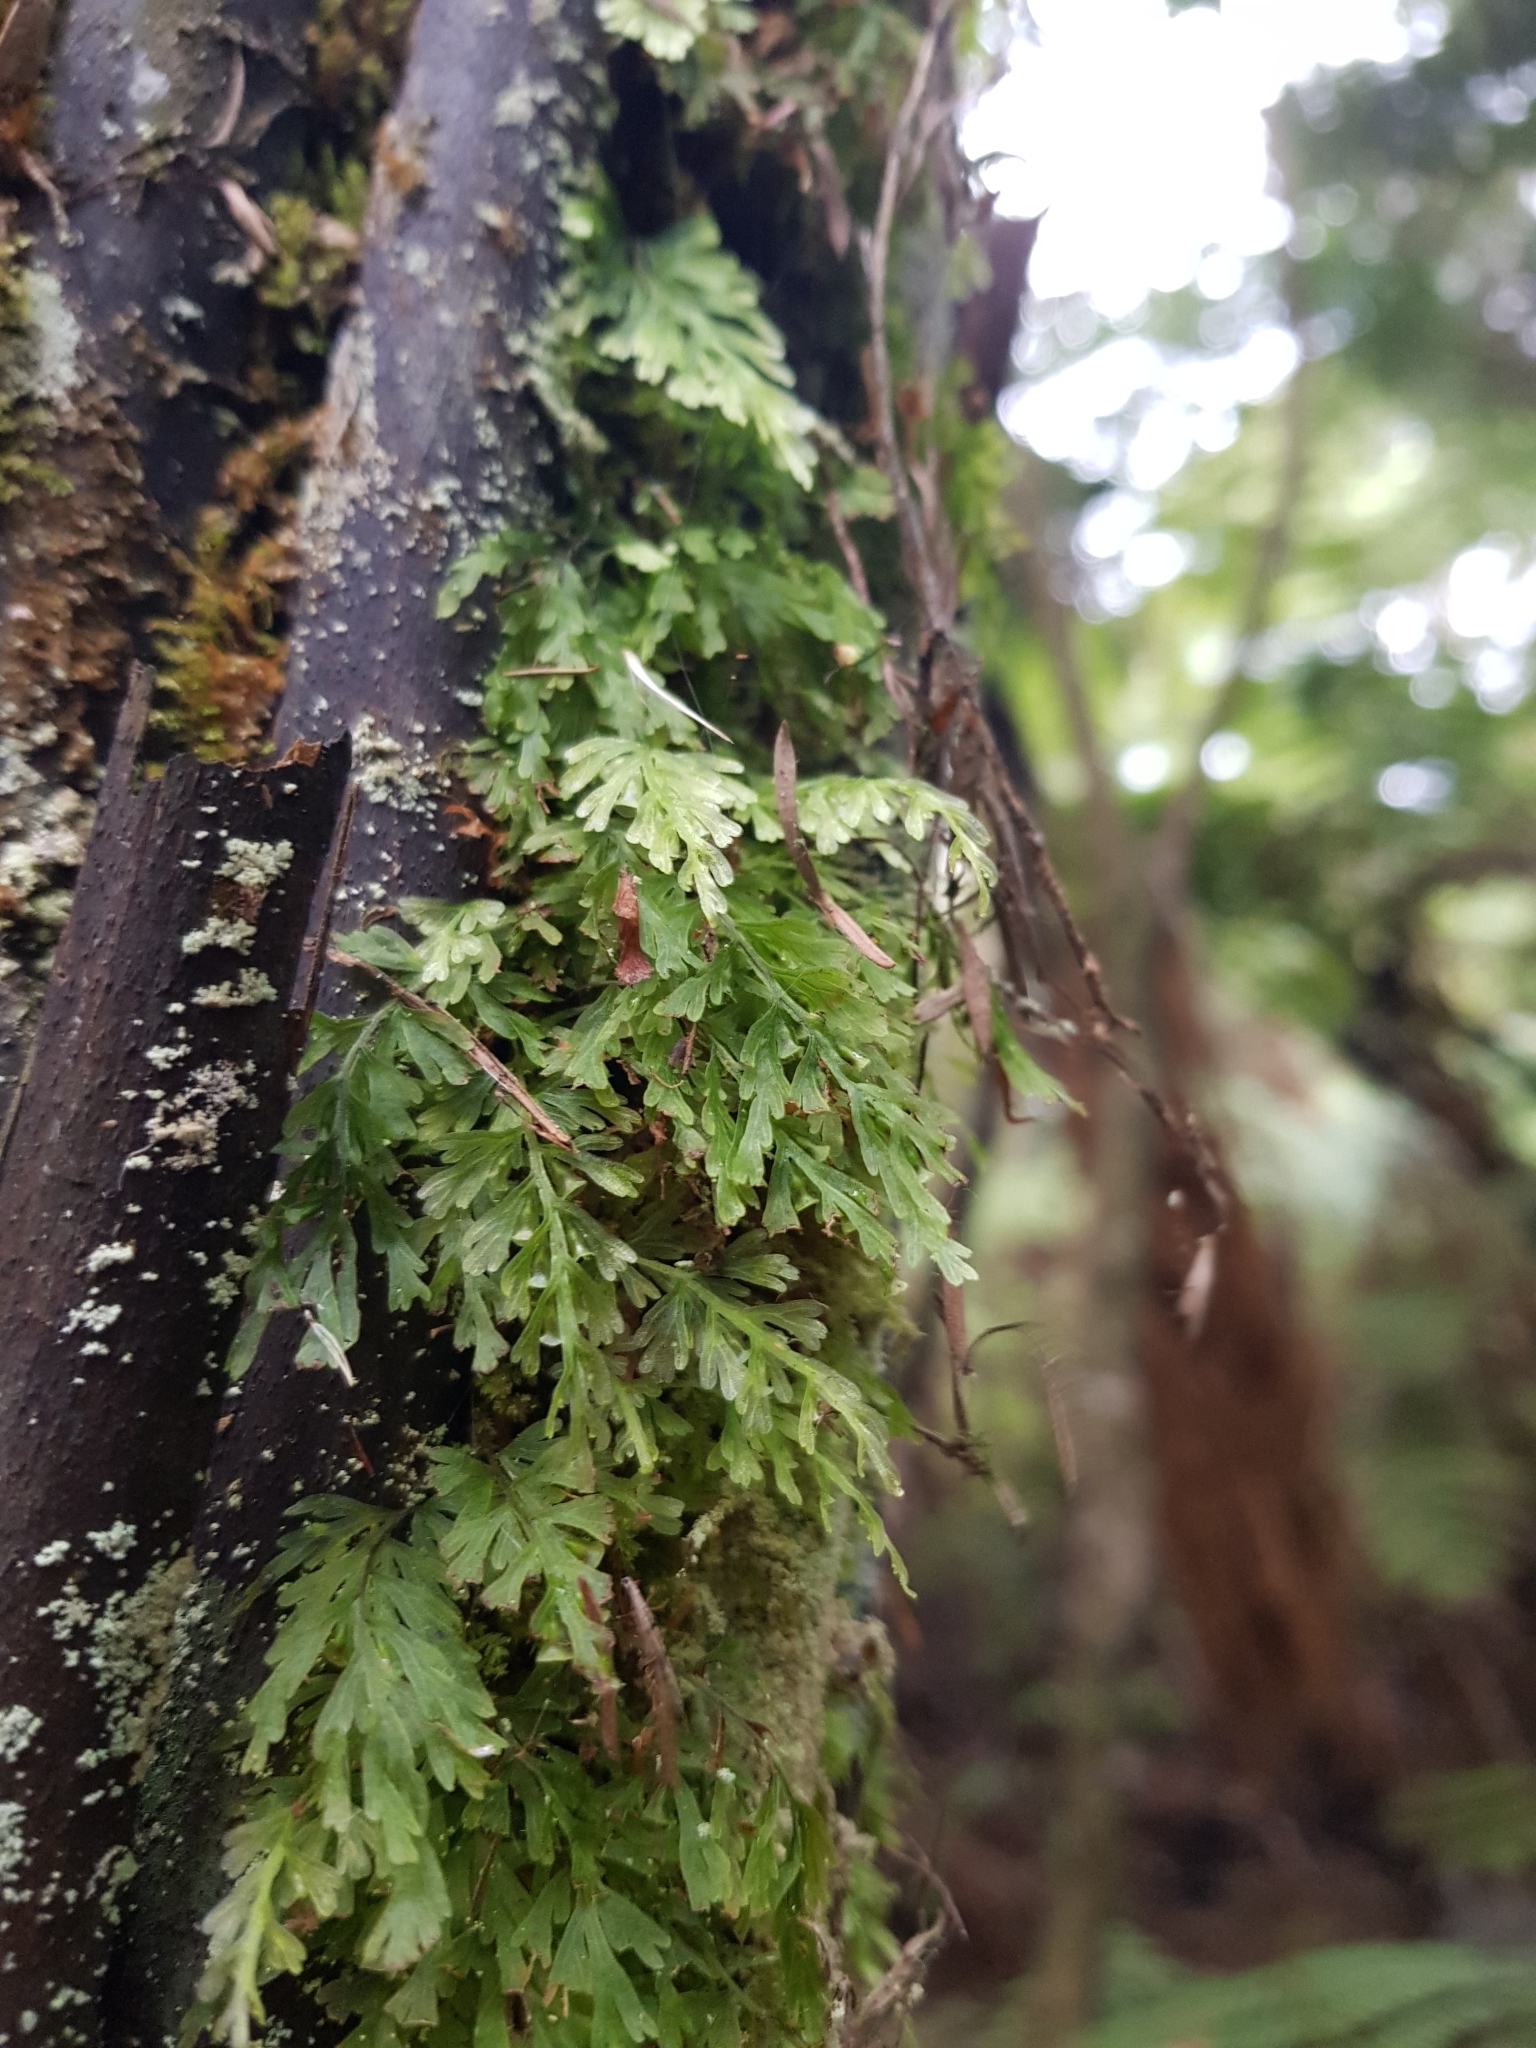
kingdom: Plantae
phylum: Tracheophyta
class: Polypodiopsida
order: Hymenophyllales
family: Hymenophyllaceae
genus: Abrodictyum
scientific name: Abrodictyum caudatum
